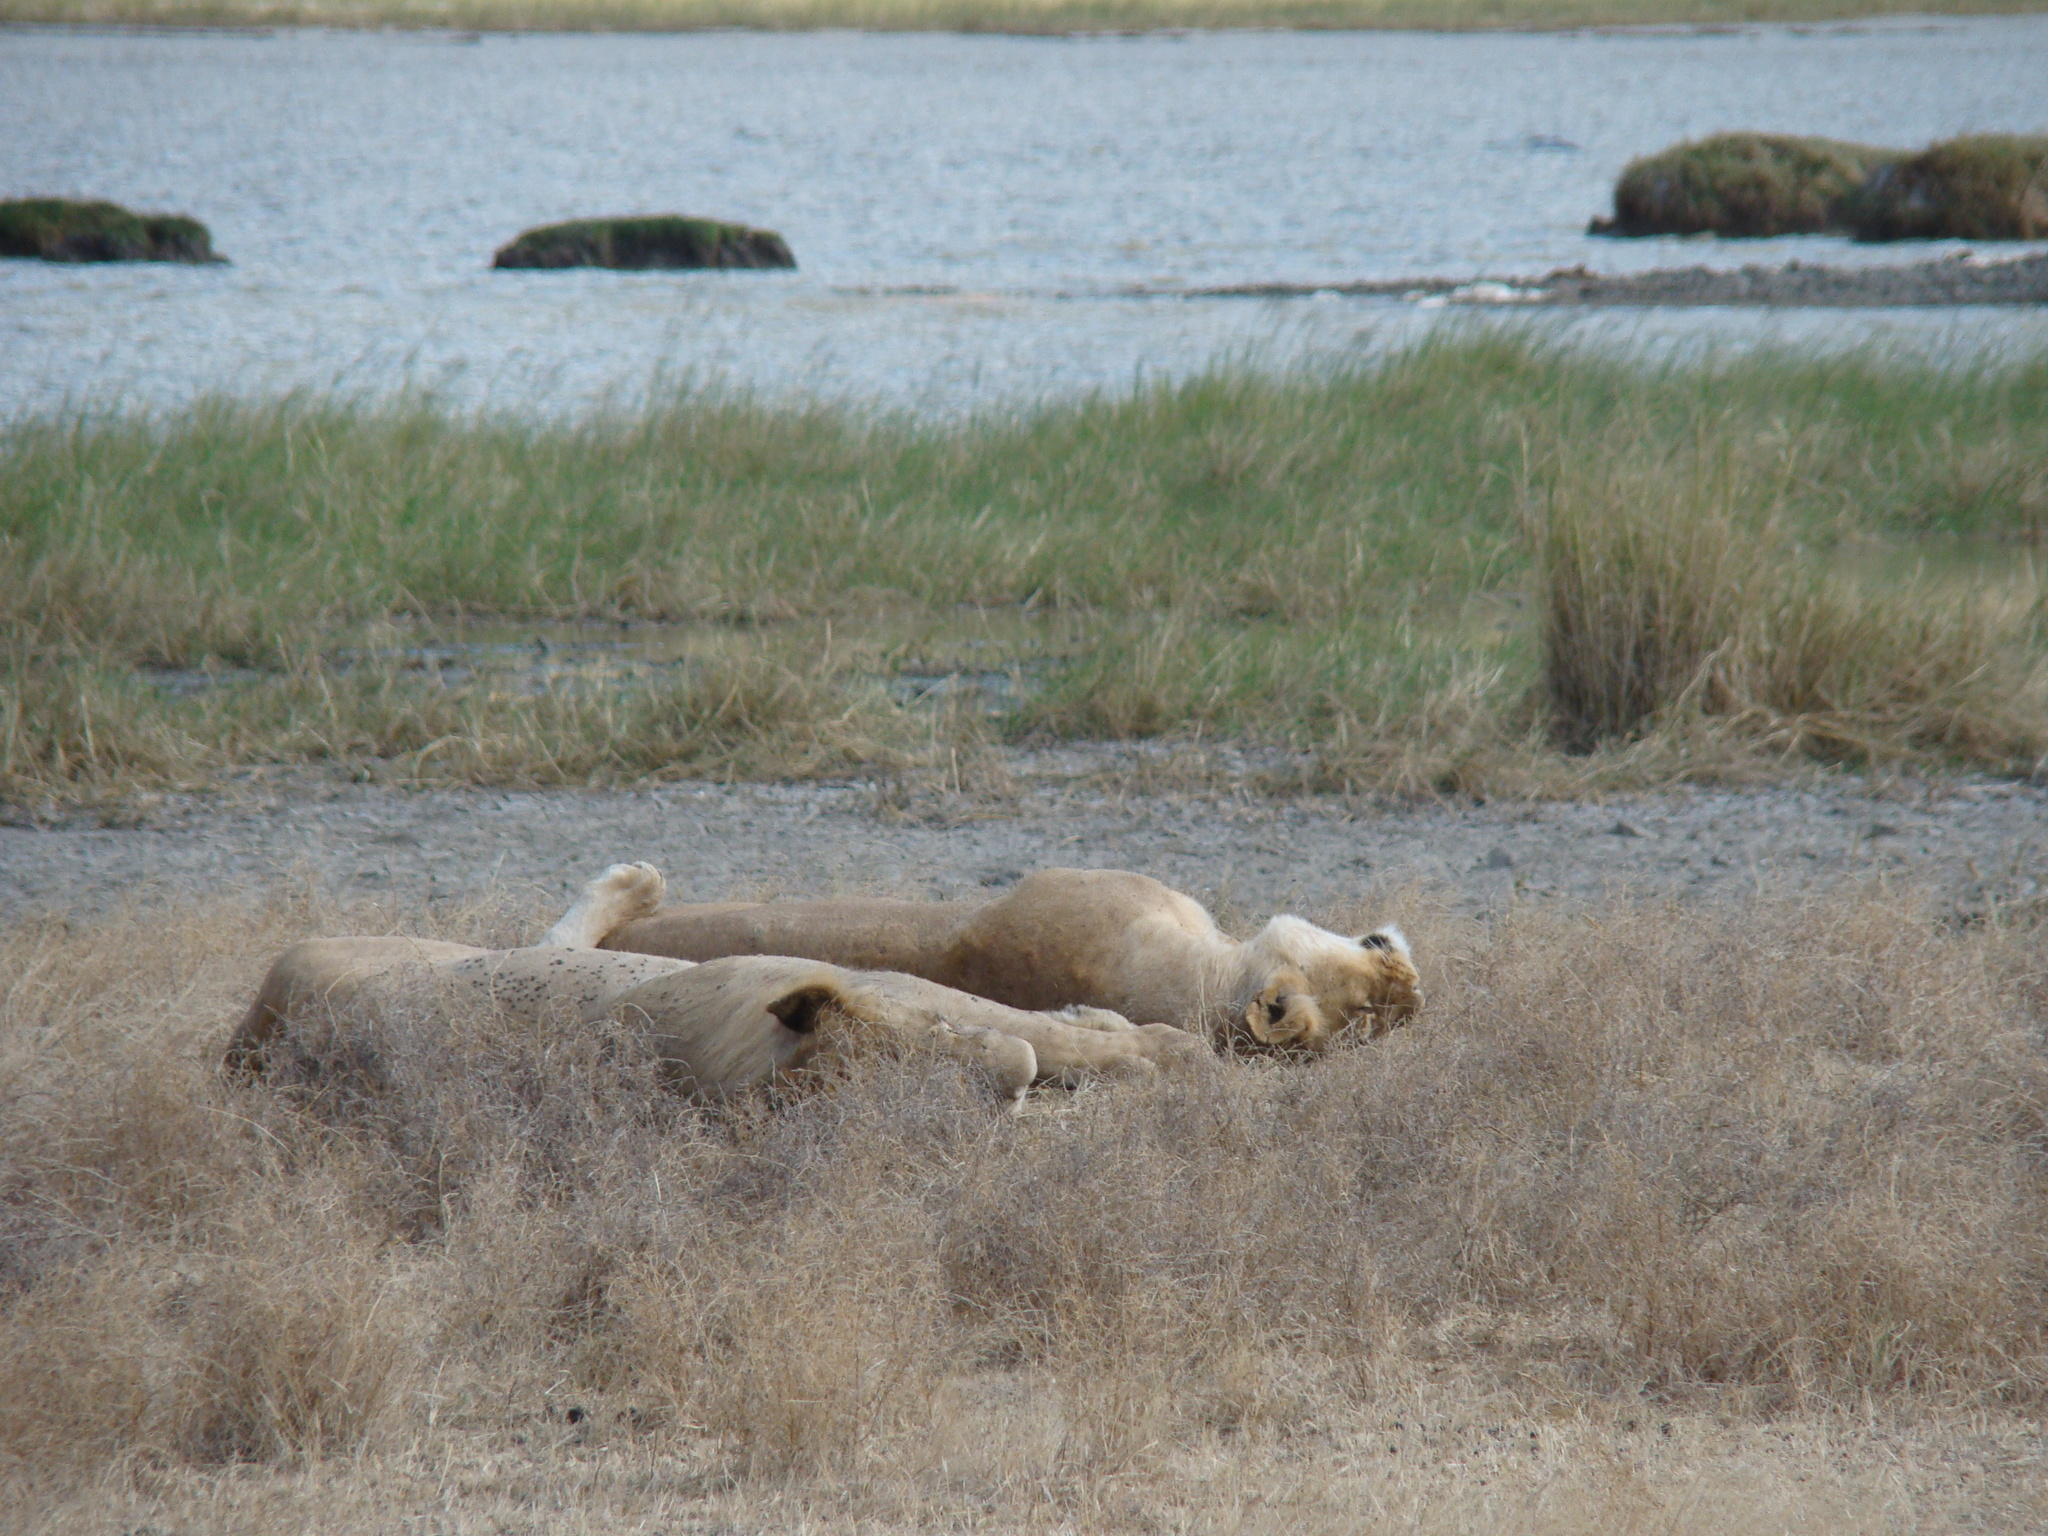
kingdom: Animalia
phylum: Chordata
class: Mammalia
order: Carnivora
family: Felidae
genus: Panthera
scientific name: Panthera leo
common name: Lion
